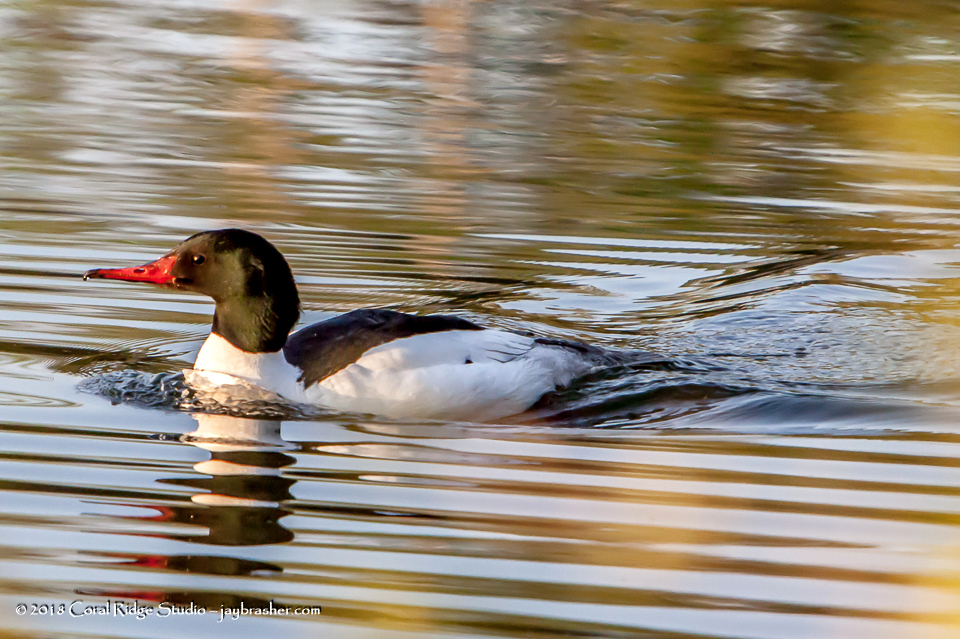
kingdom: Animalia
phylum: Chordata
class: Aves
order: Anseriformes
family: Anatidae
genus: Mergus
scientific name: Mergus merganser
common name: Common merganser
